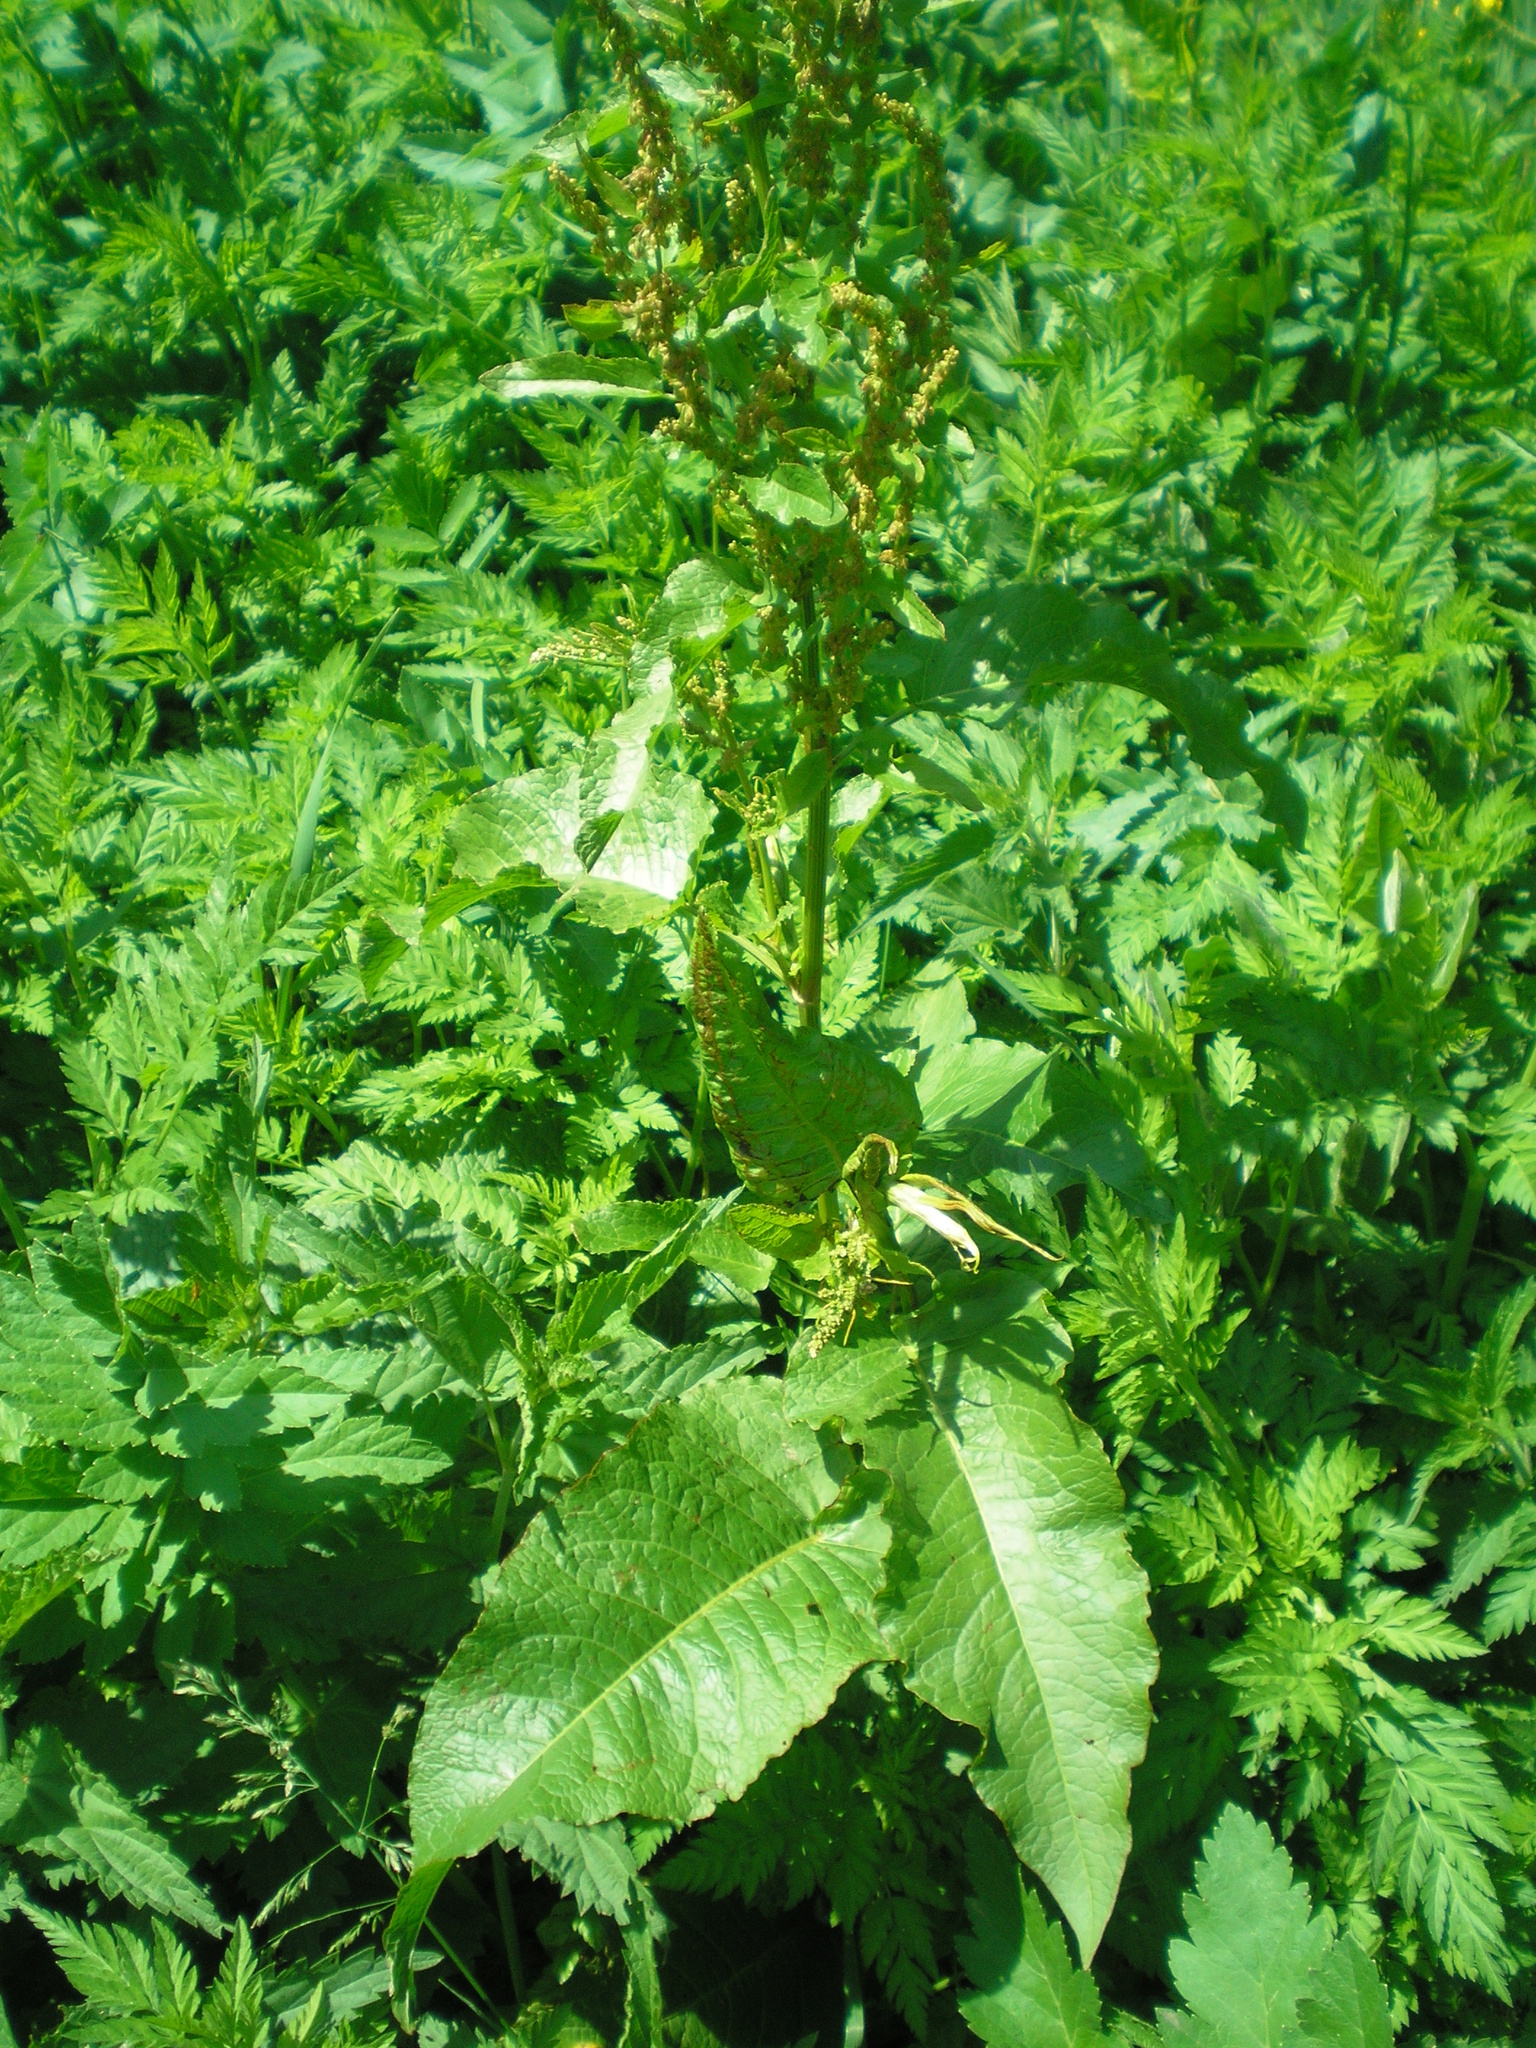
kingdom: Plantae
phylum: Tracheophyta
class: Magnoliopsida
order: Caryophyllales
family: Polygonaceae
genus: Rumex
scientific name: Rumex obtusifolius
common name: Bitter dock
